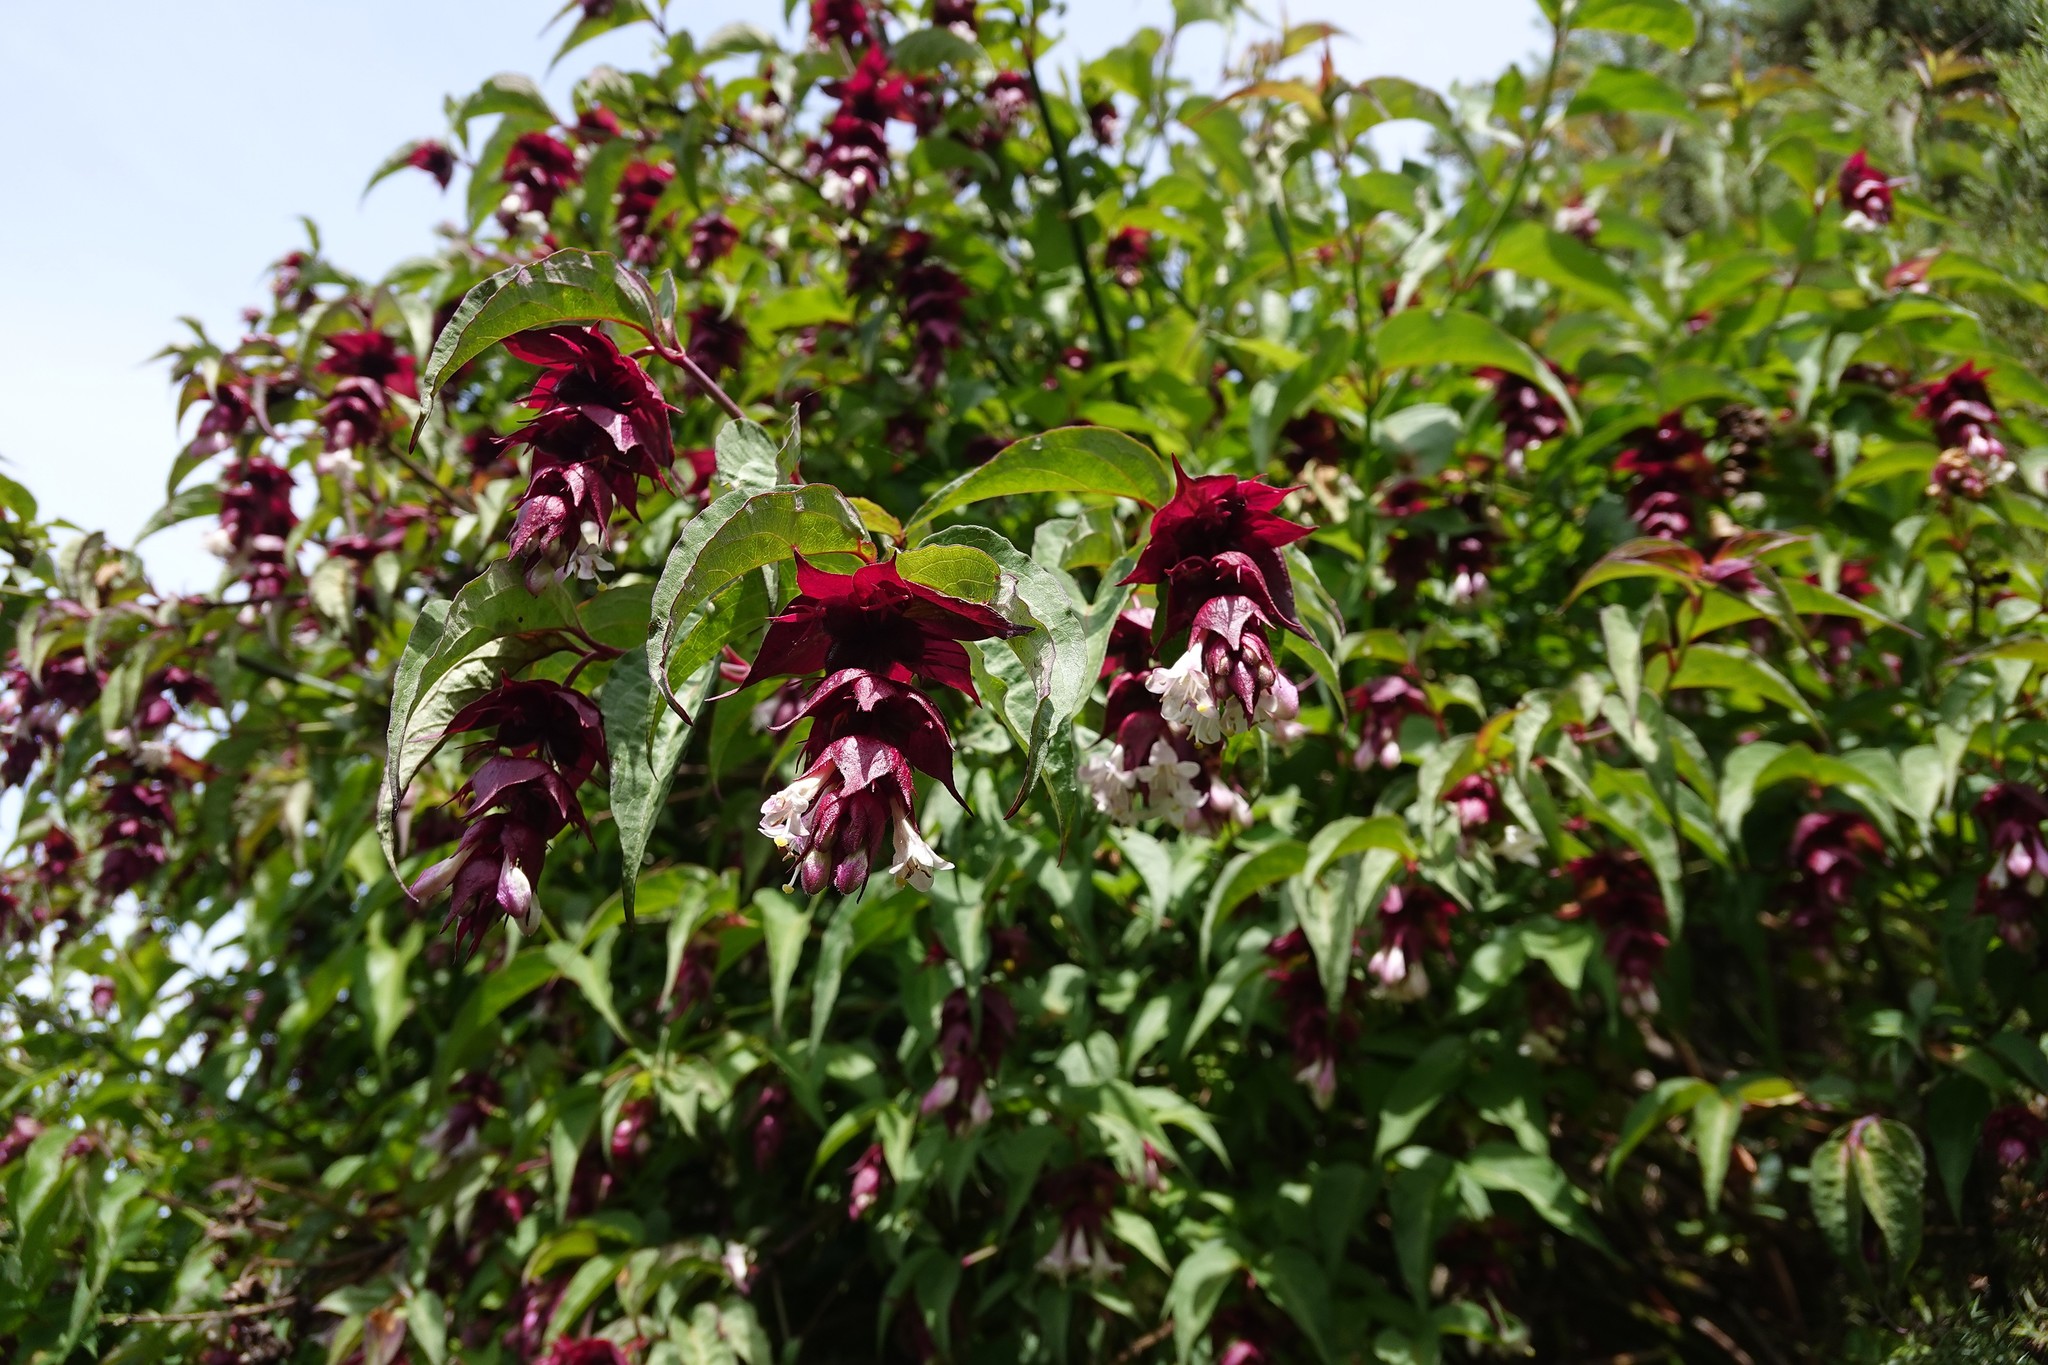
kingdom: Plantae
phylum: Tracheophyta
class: Magnoliopsida
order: Dipsacales
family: Caprifoliaceae
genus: Leycesteria
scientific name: Leycesteria formosa
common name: Himalayan honeysuckle
